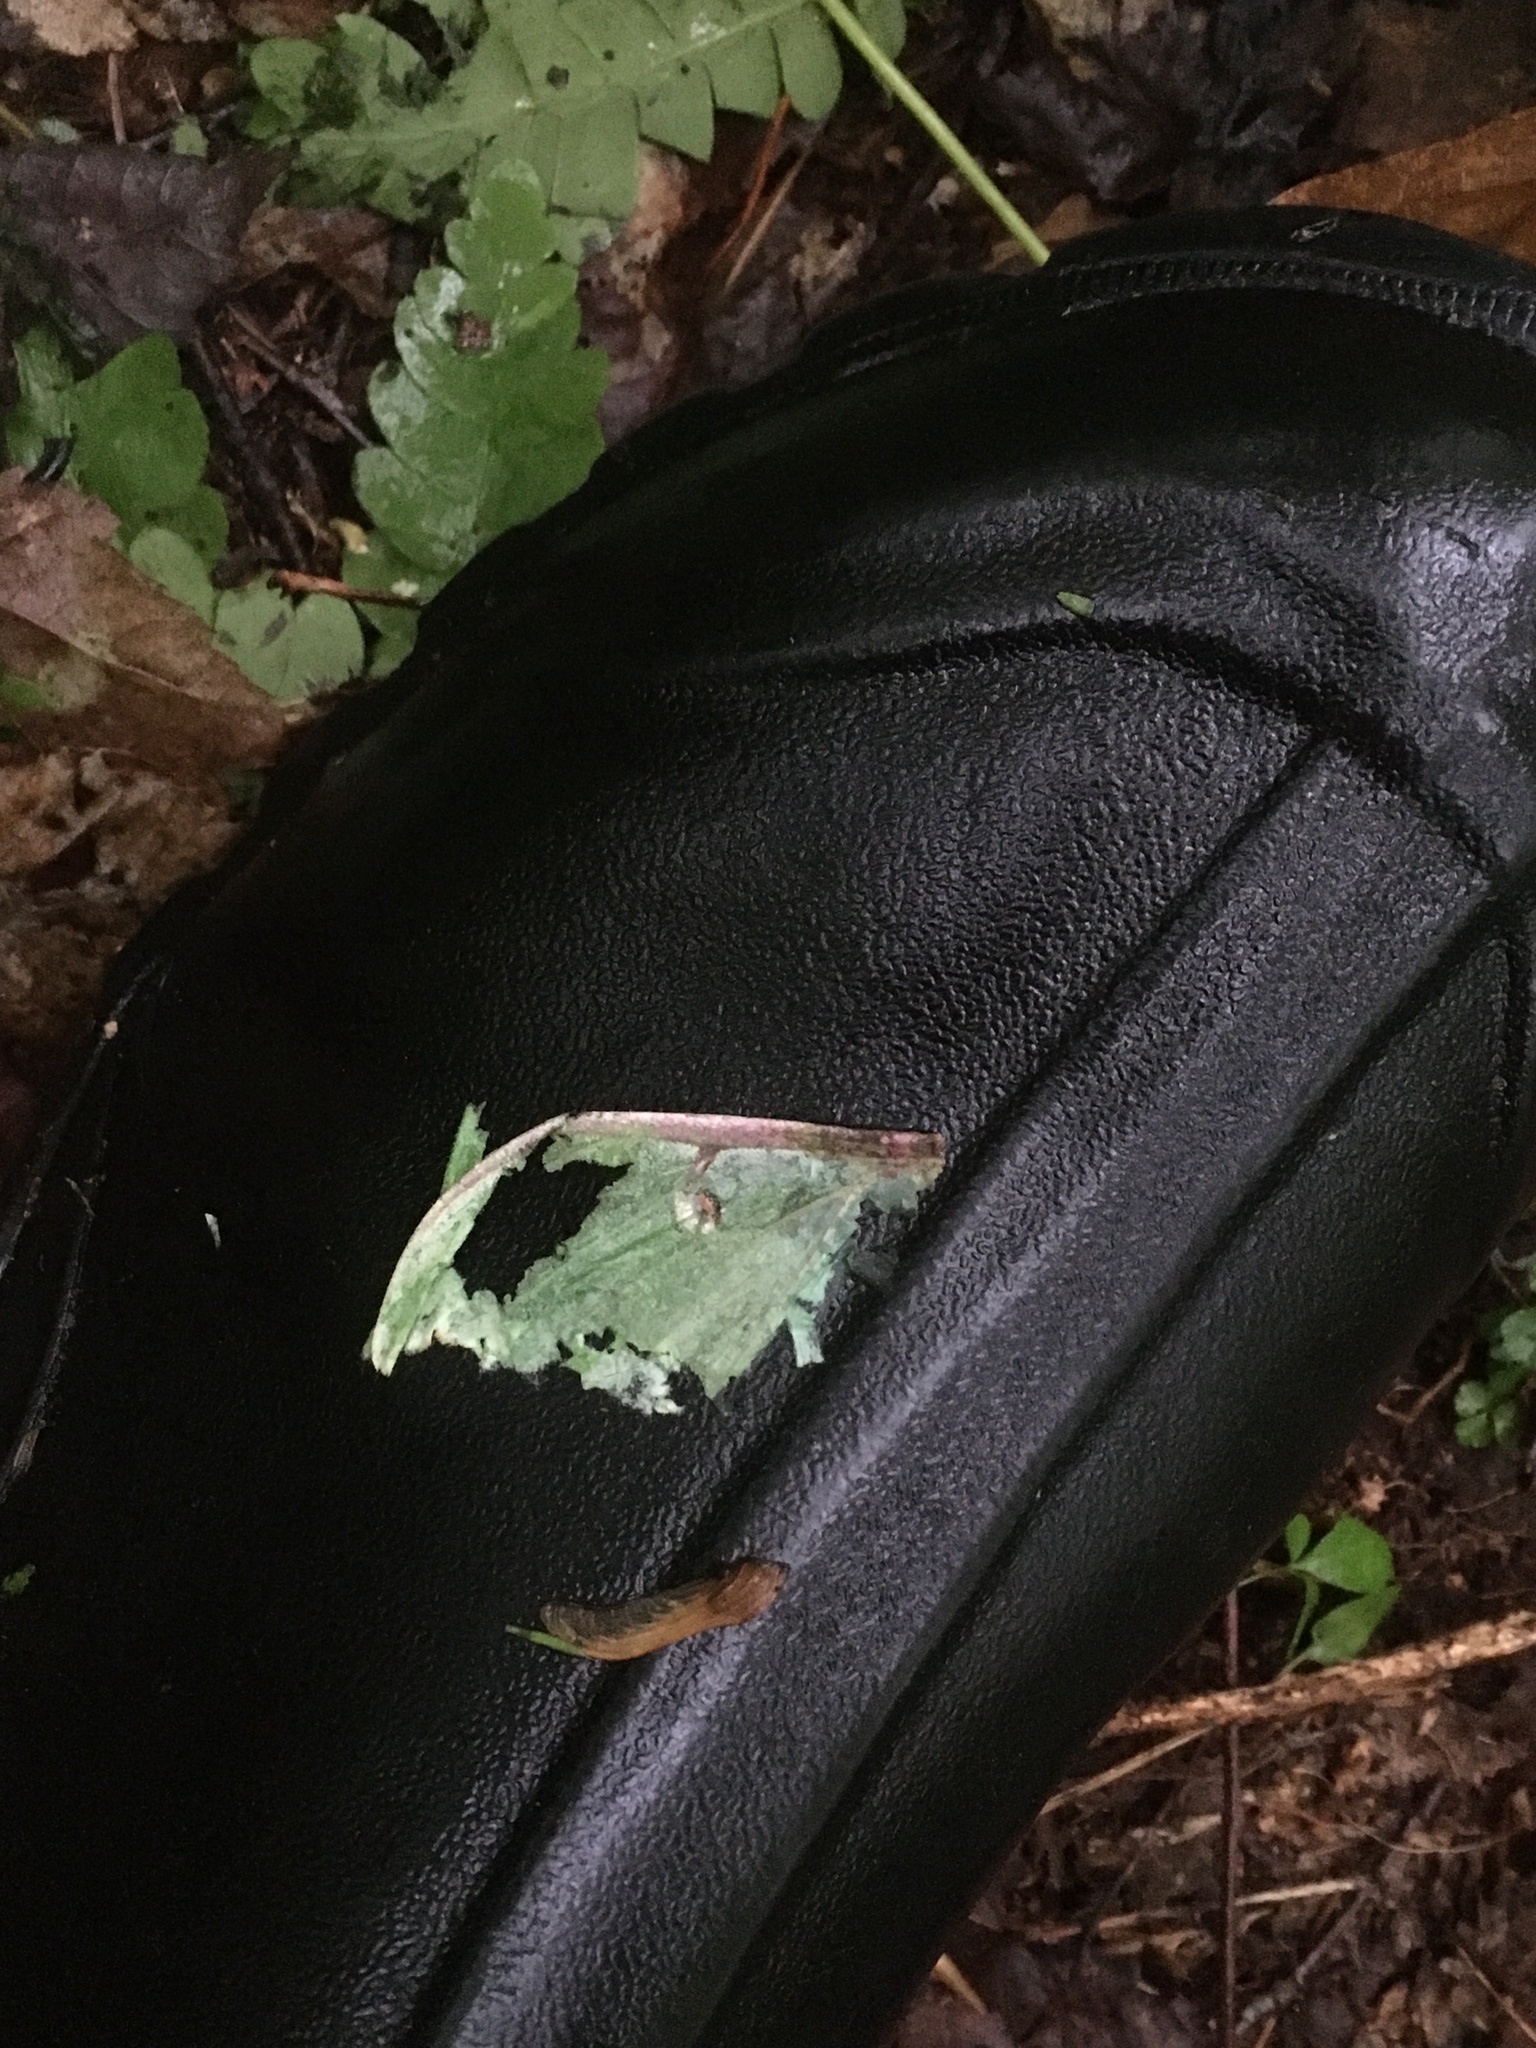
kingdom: Animalia
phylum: Arthropoda
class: Insecta
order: Lepidoptera
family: Saturniidae
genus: Actias
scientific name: Actias luna
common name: Luna moth
